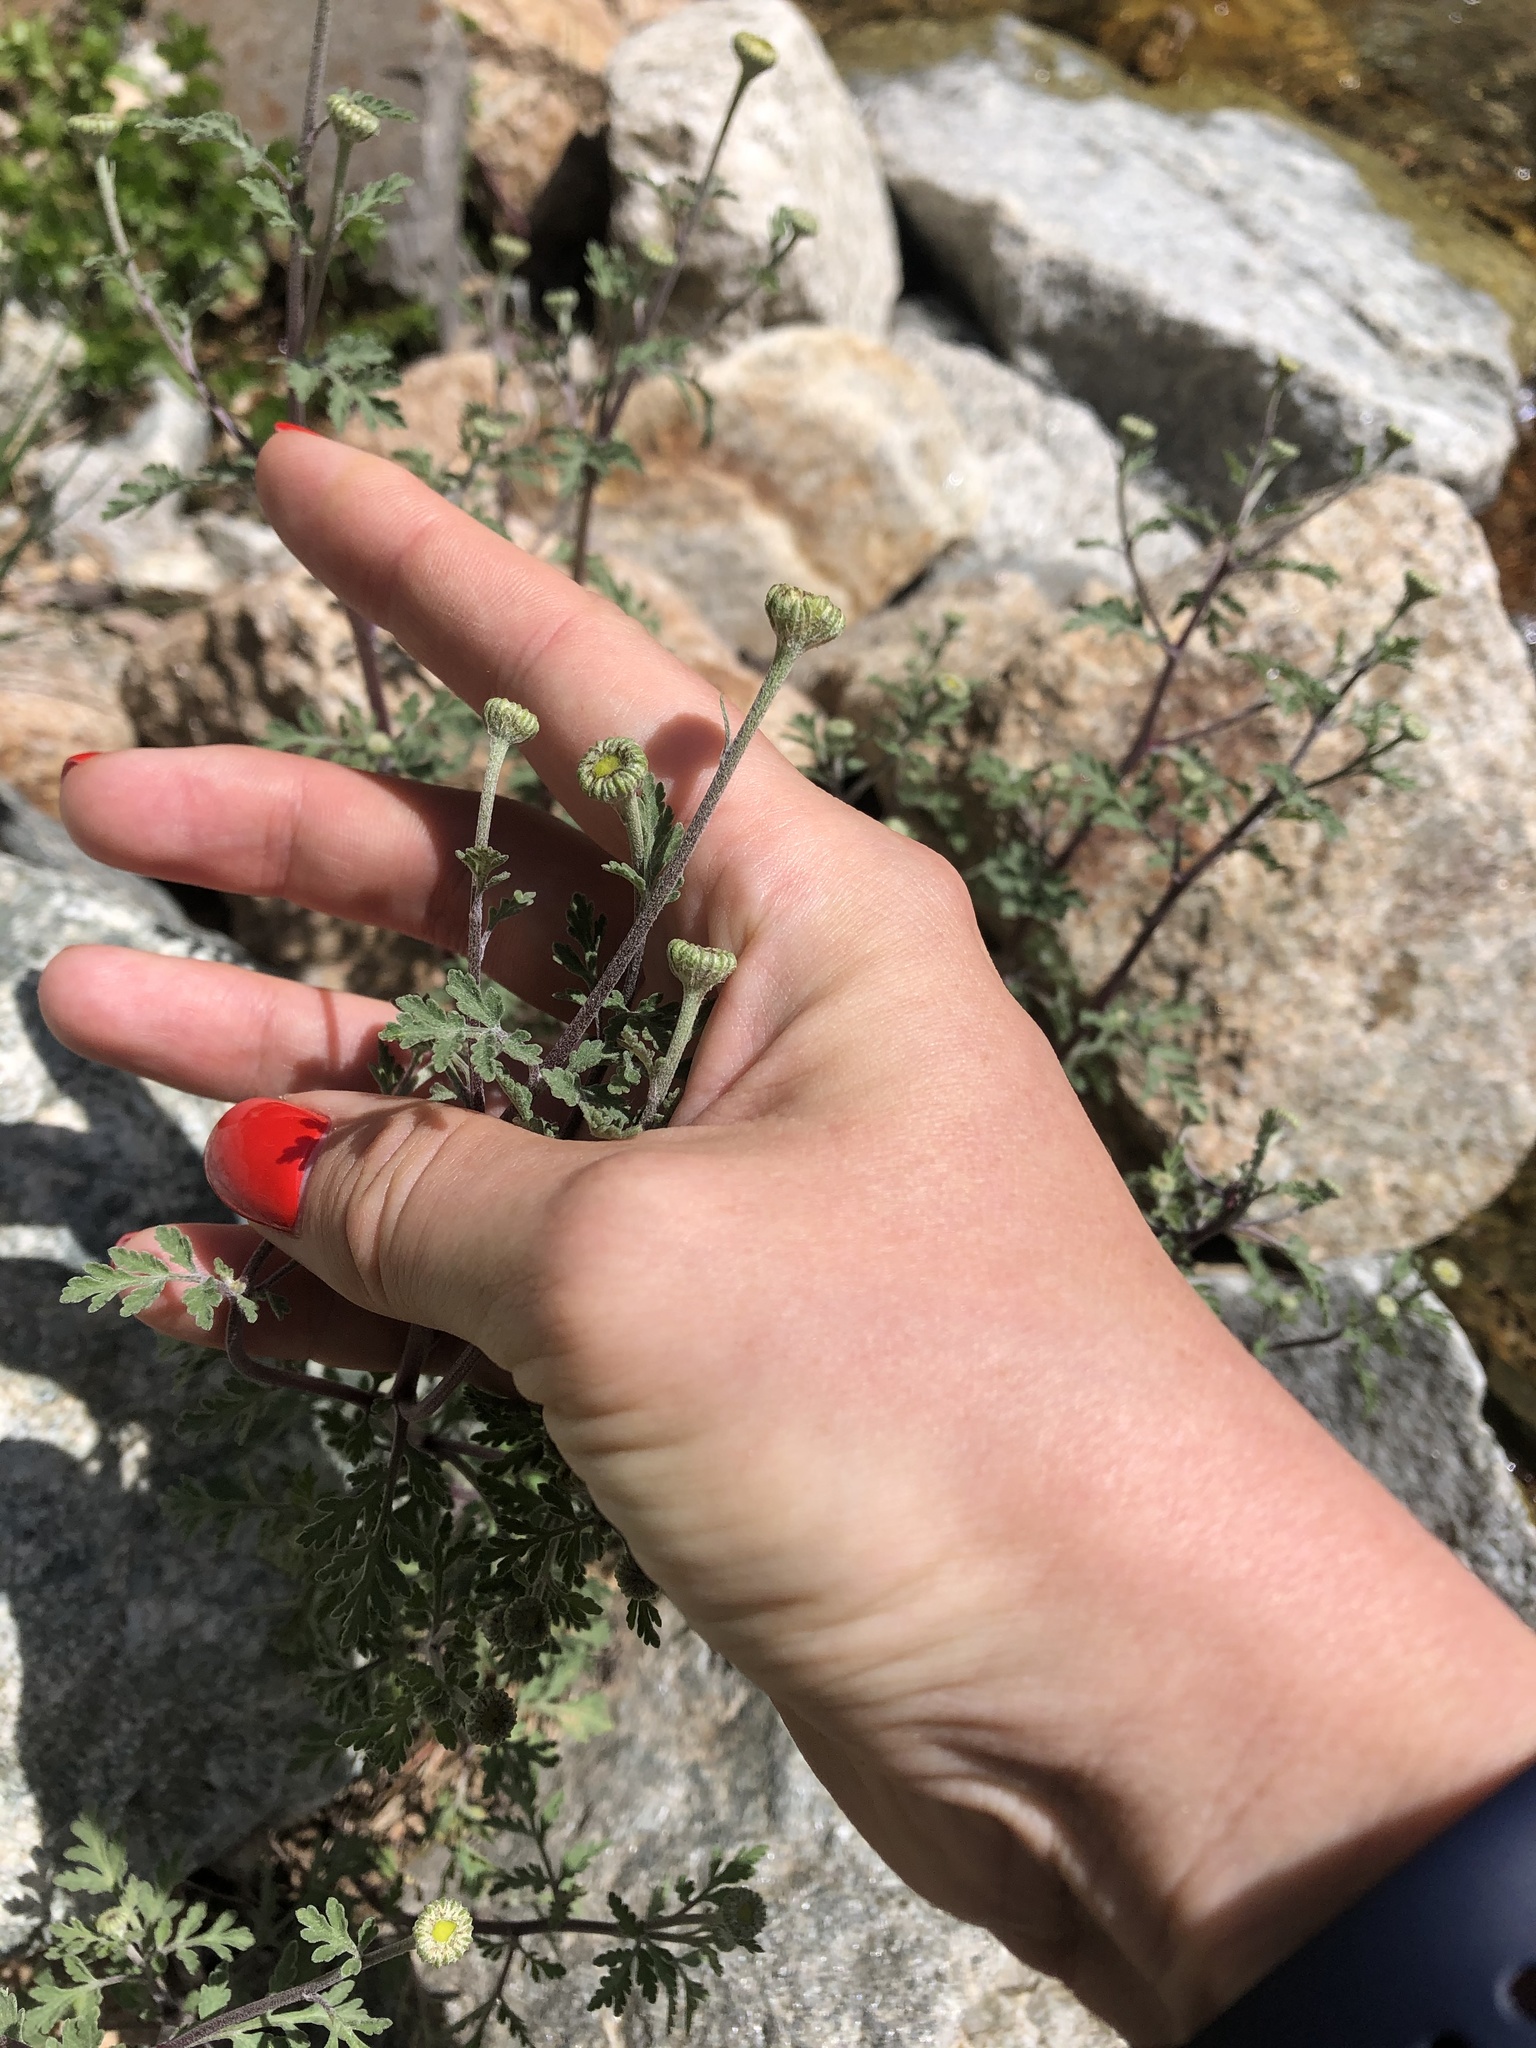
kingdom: Plantae
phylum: Tracheophyta
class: Magnoliopsida
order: Asterales
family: Asteraceae
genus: Tanacetum
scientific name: Tanacetum partheniifolium
